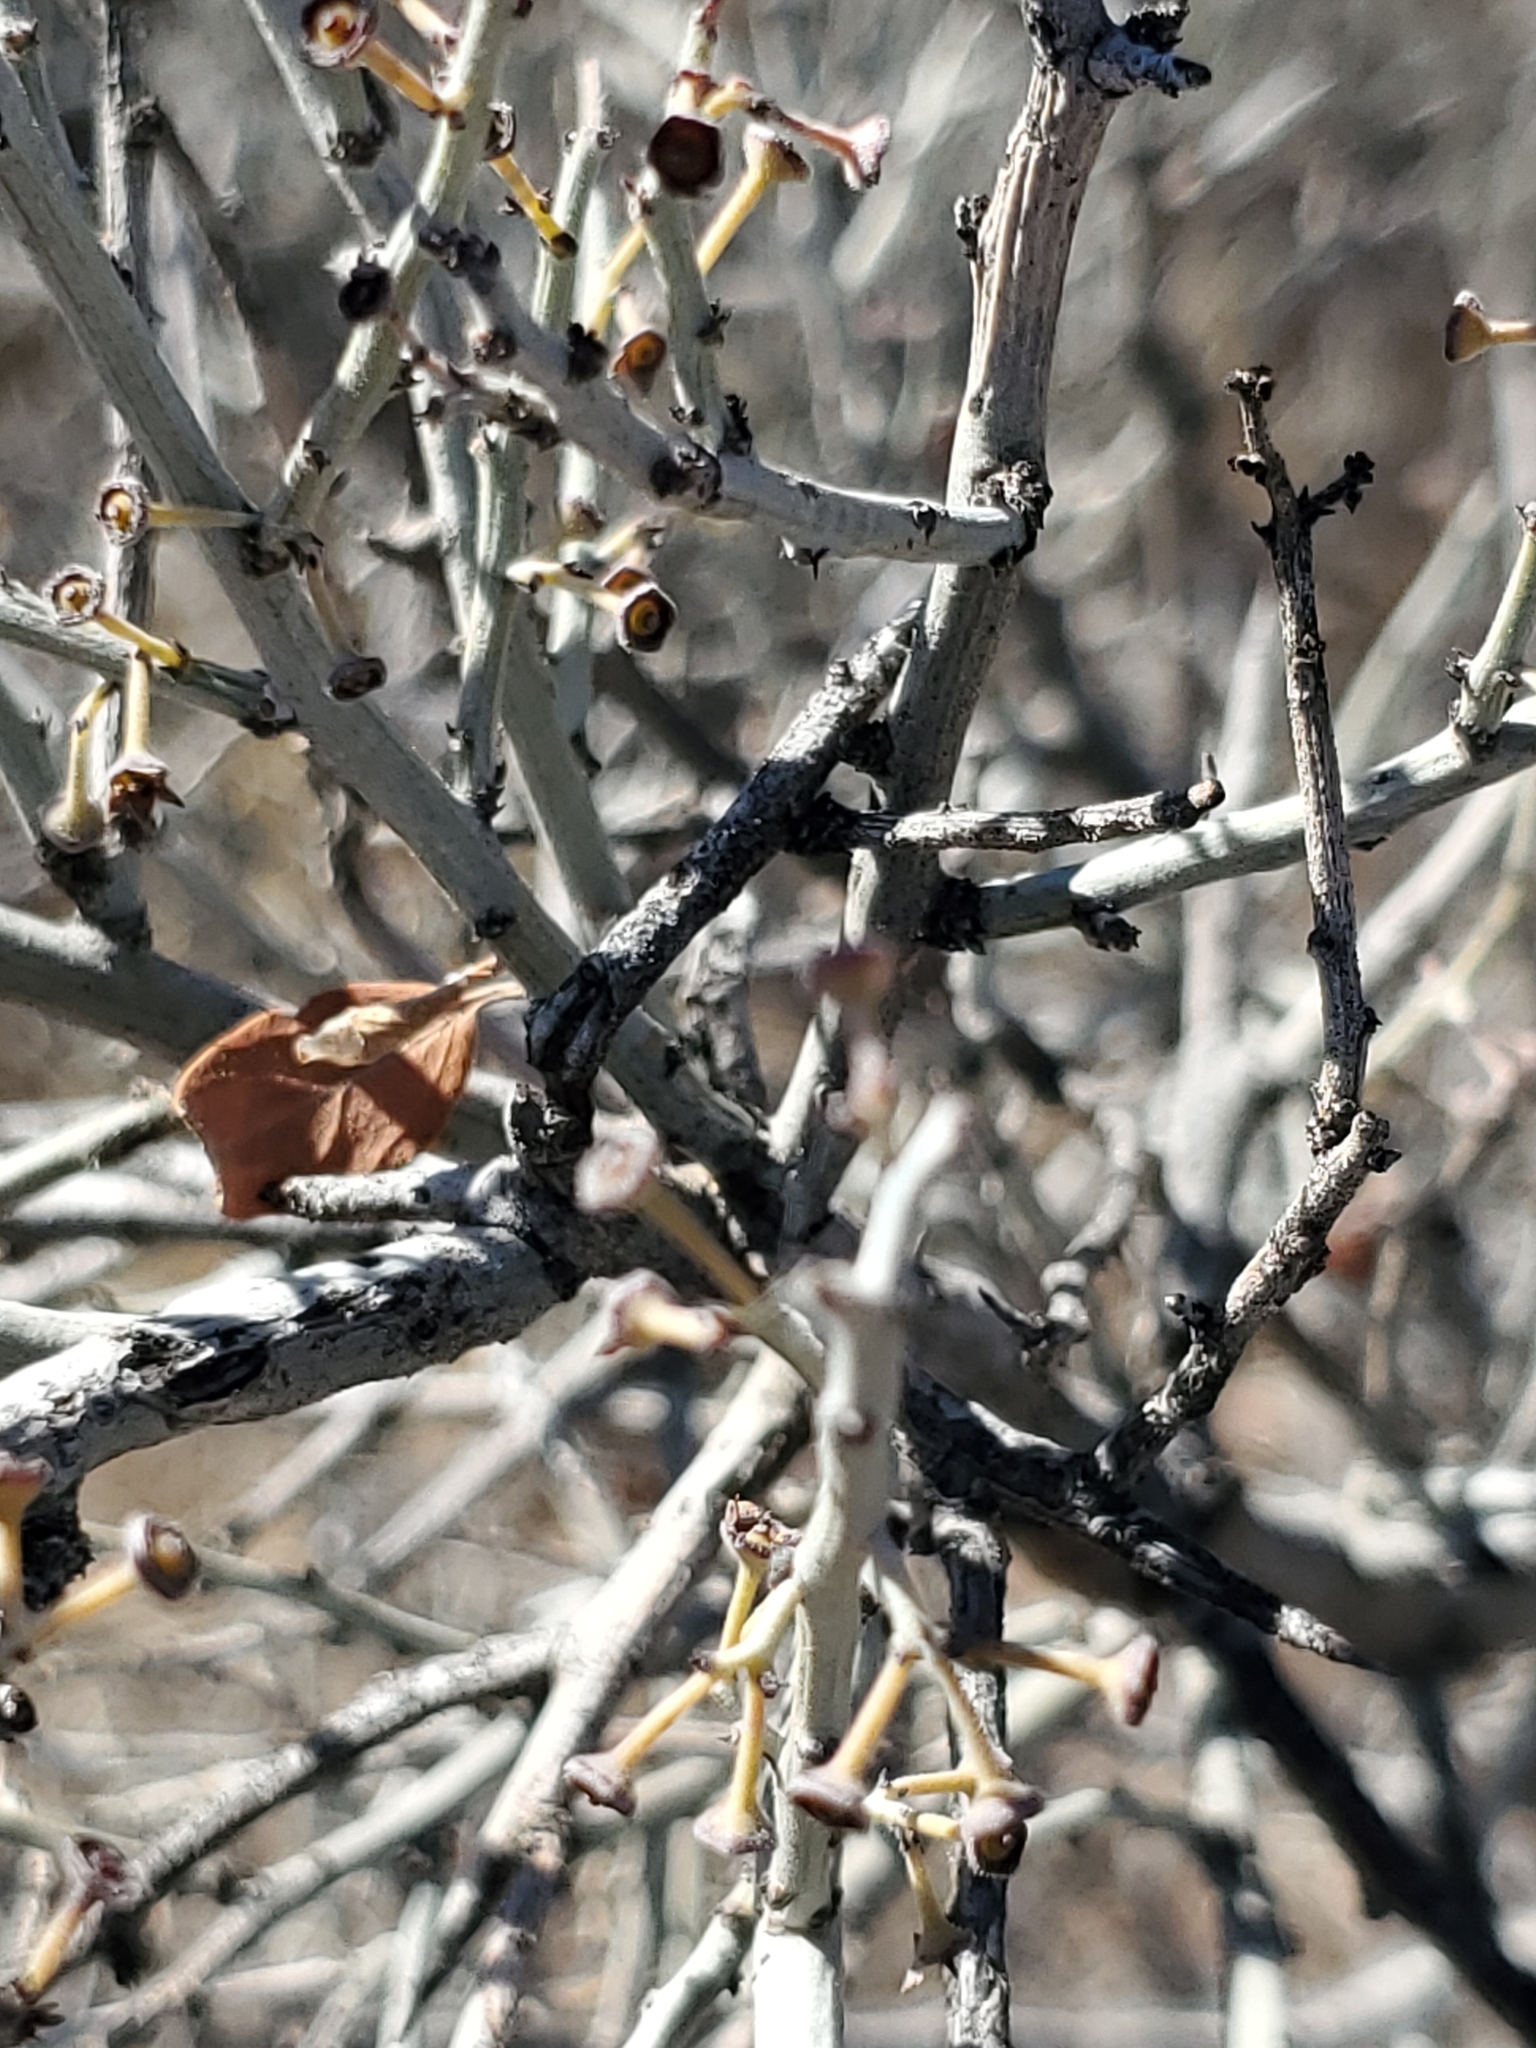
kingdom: Plantae
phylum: Tracheophyta
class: Magnoliopsida
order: Rosales
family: Rhamnaceae
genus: Sarcomphalus
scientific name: Sarcomphalus obtusifolius
